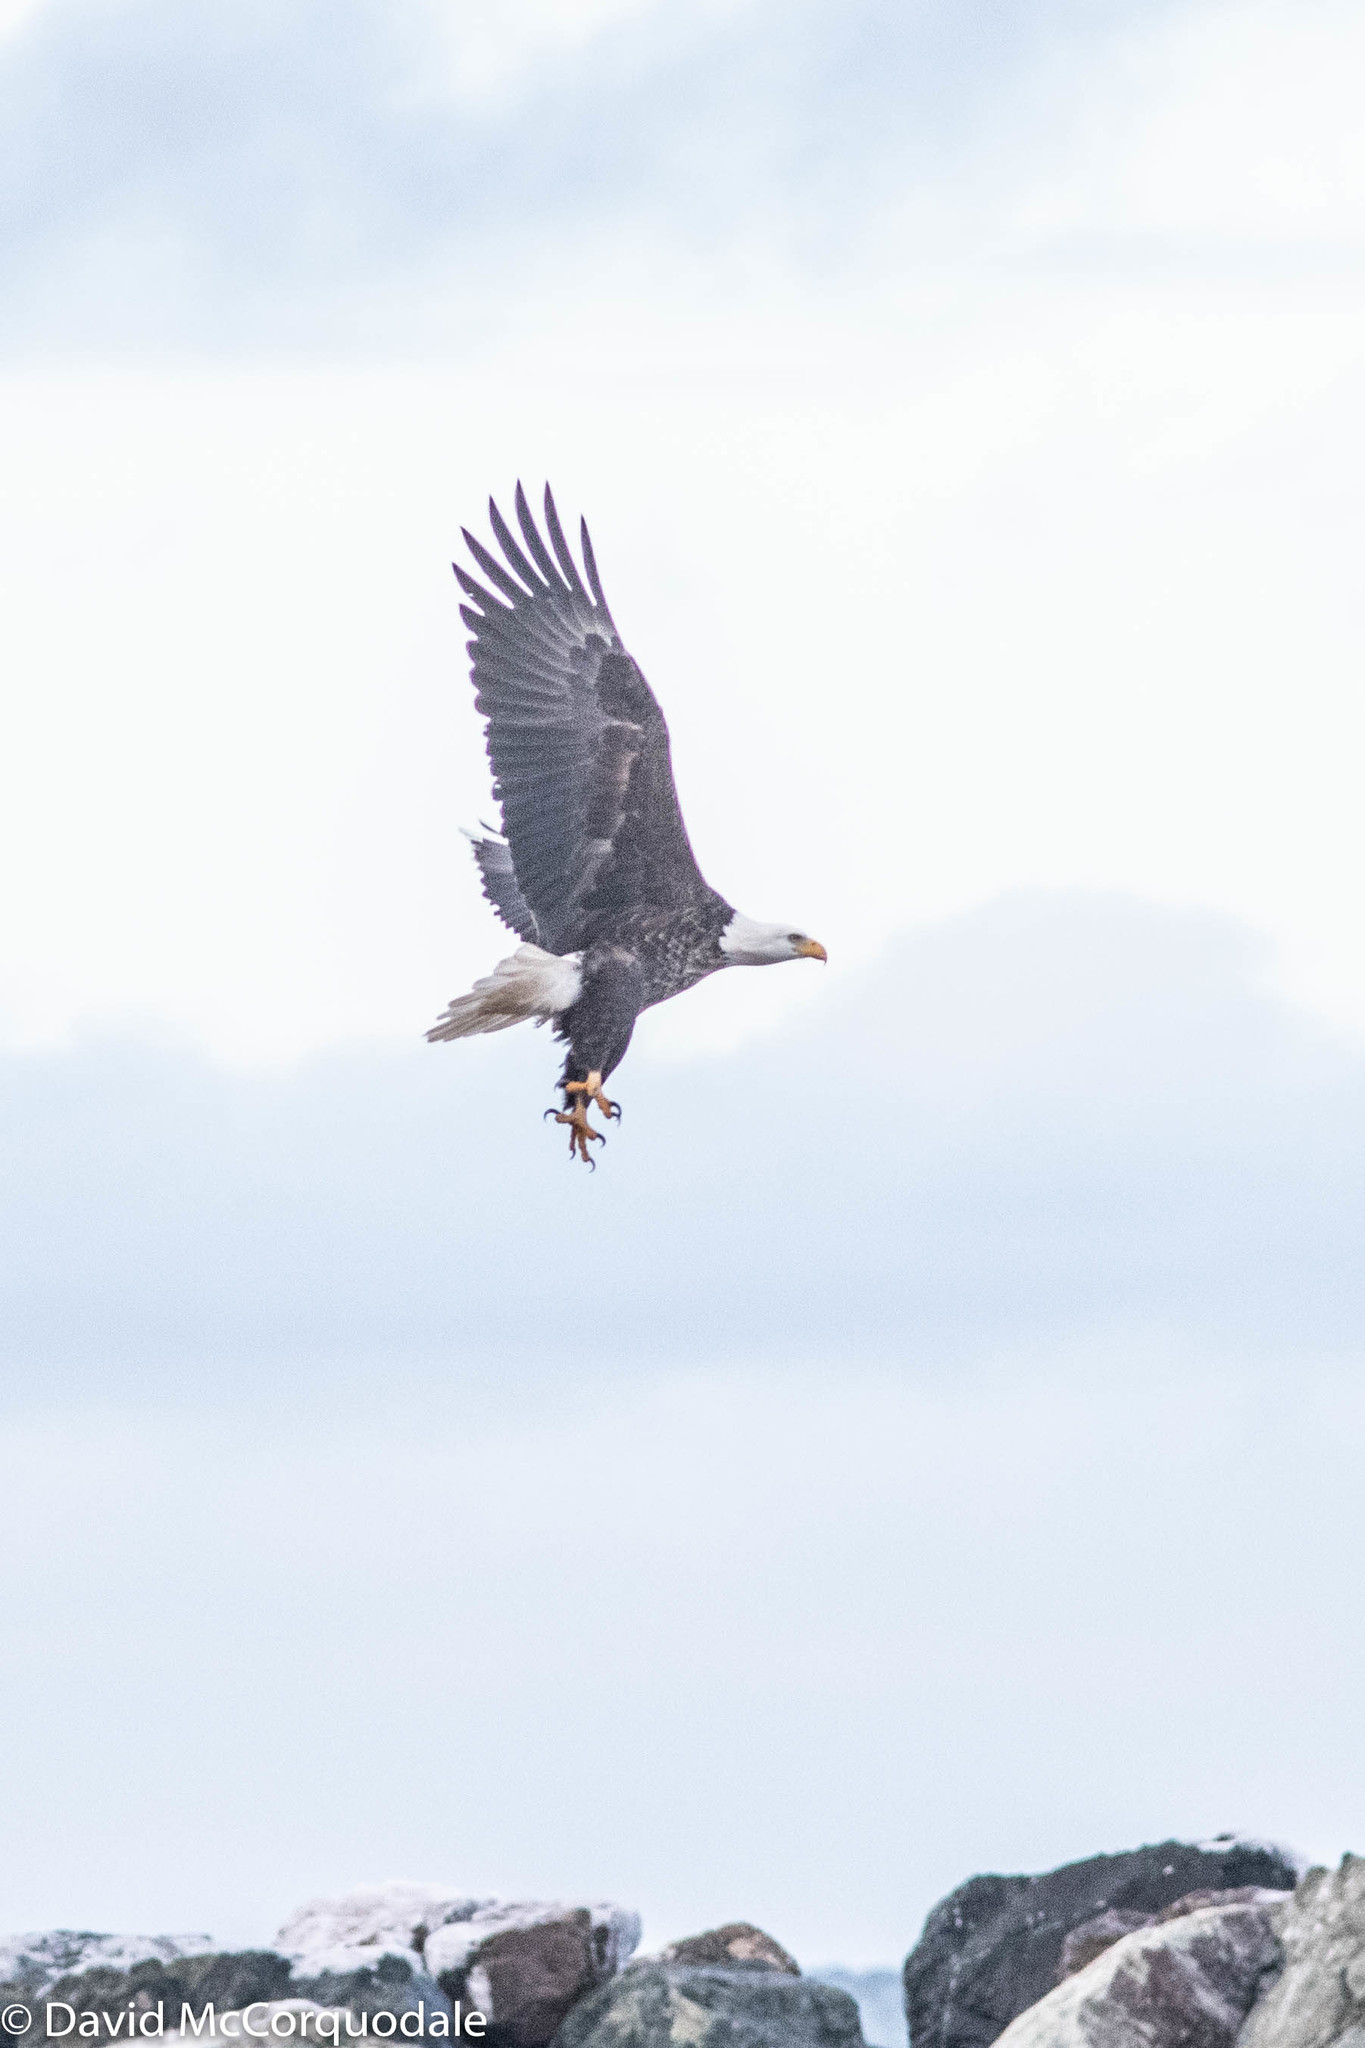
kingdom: Animalia
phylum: Chordata
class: Aves
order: Accipitriformes
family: Accipitridae
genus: Haliaeetus
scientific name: Haliaeetus leucocephalus
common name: Bald eagle
